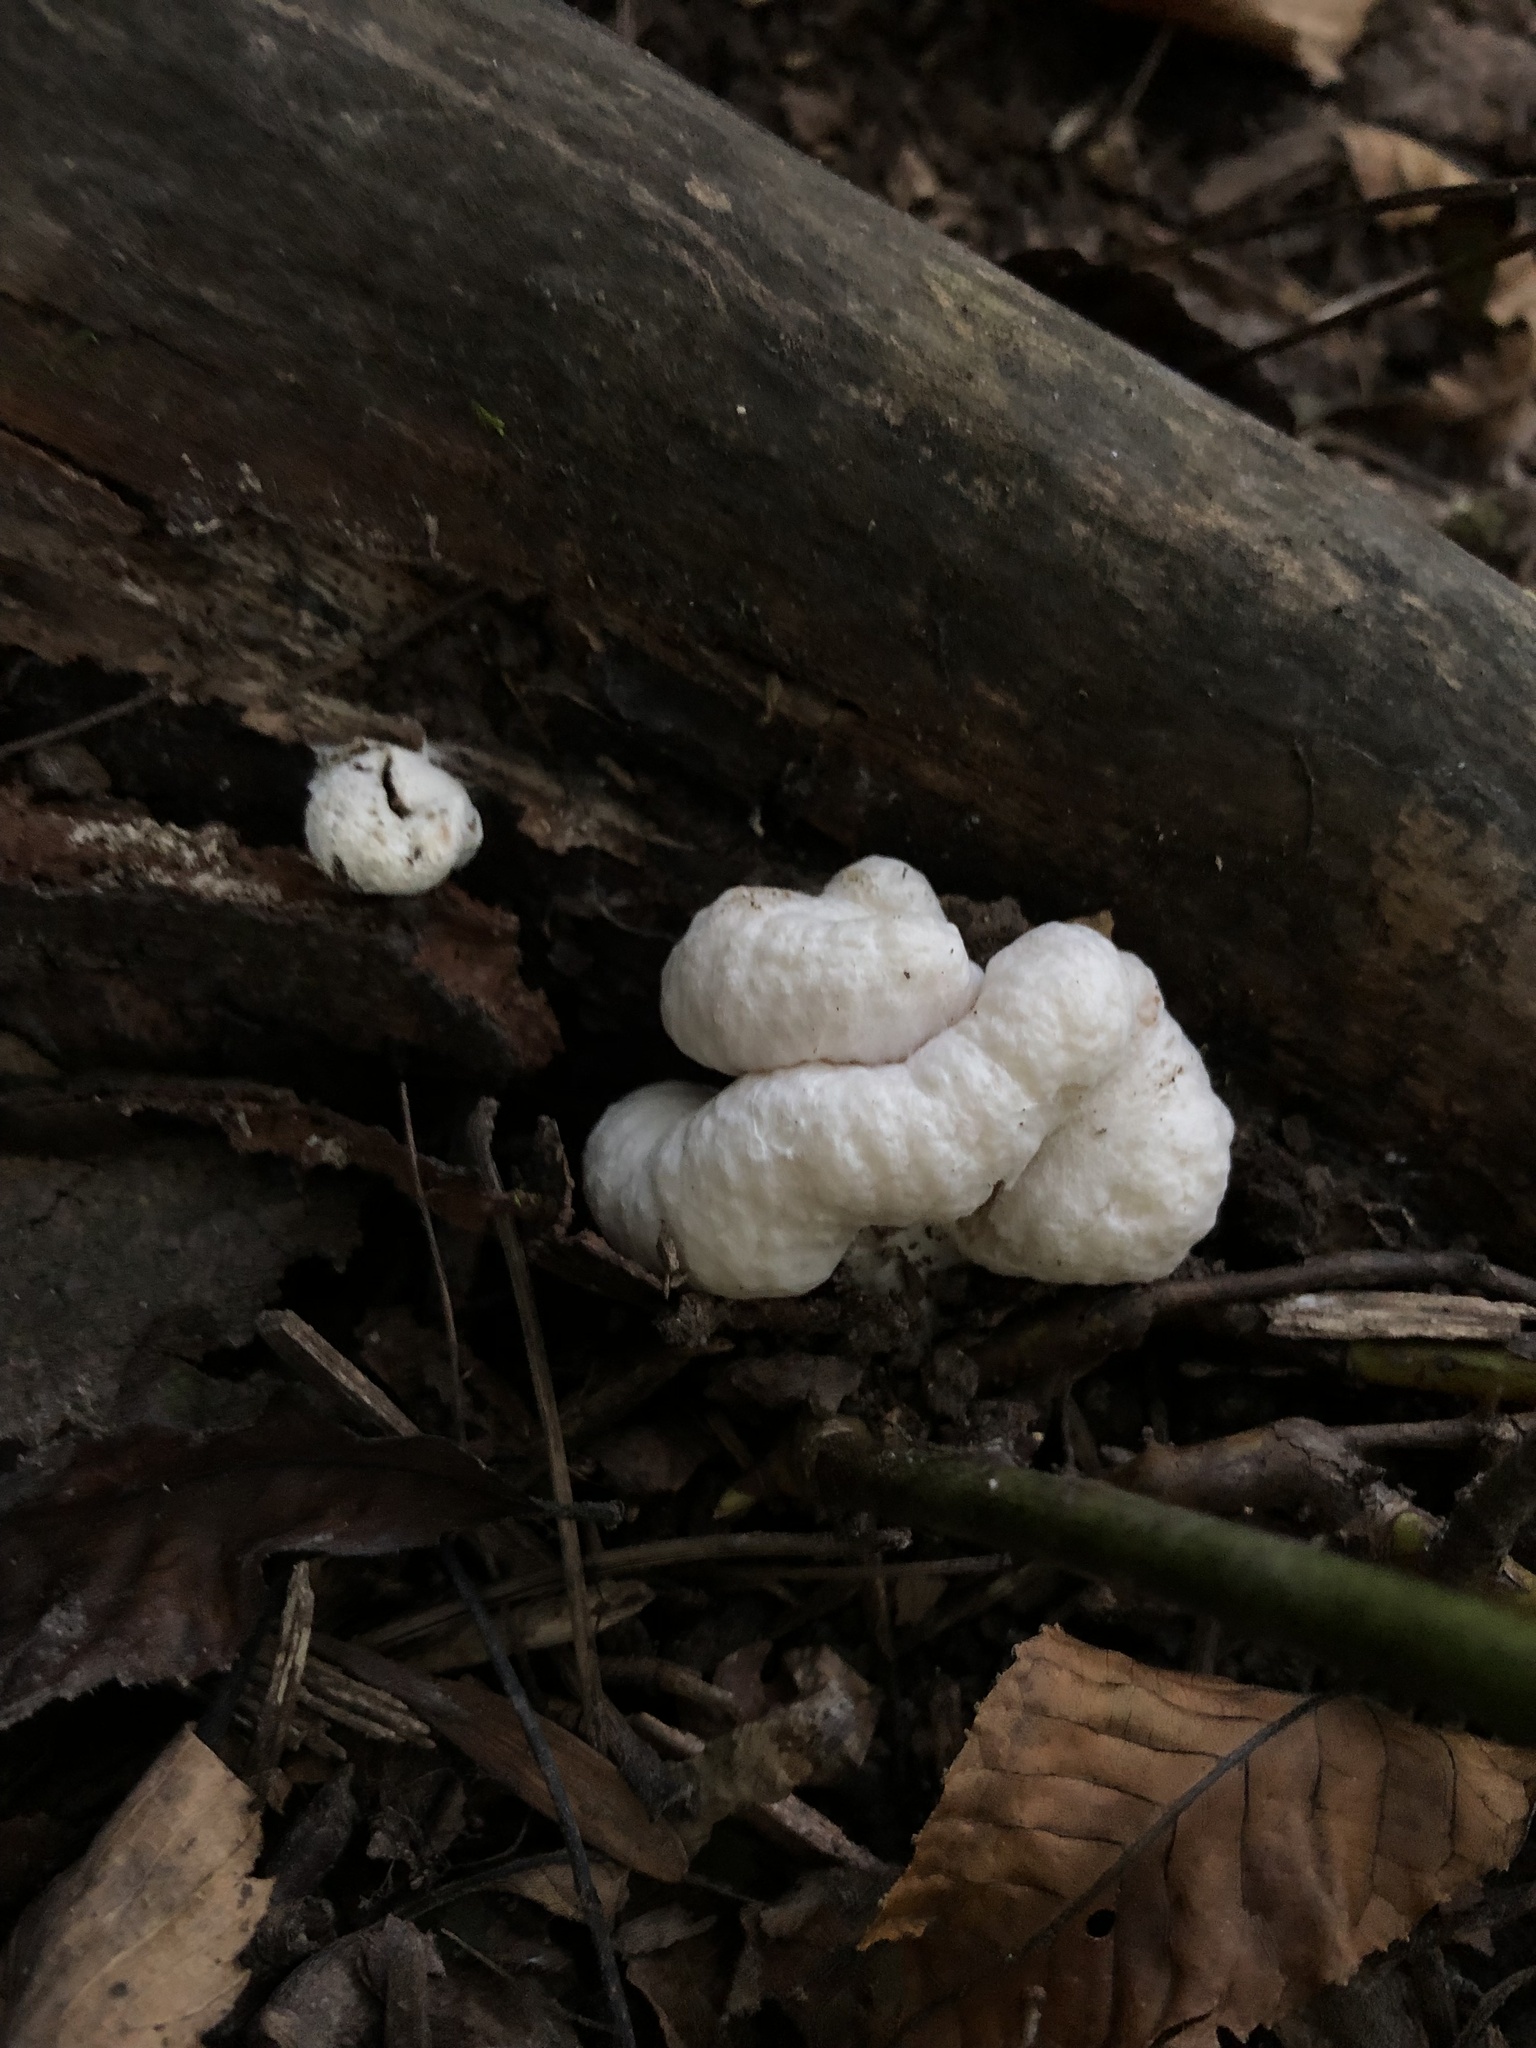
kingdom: Fungi
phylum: Basidiomycota
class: Agaricomycetes
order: Agaricales
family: Entolomataceae
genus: Entoloma
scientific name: Entoloma abortivum
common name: Aborted entoloma
